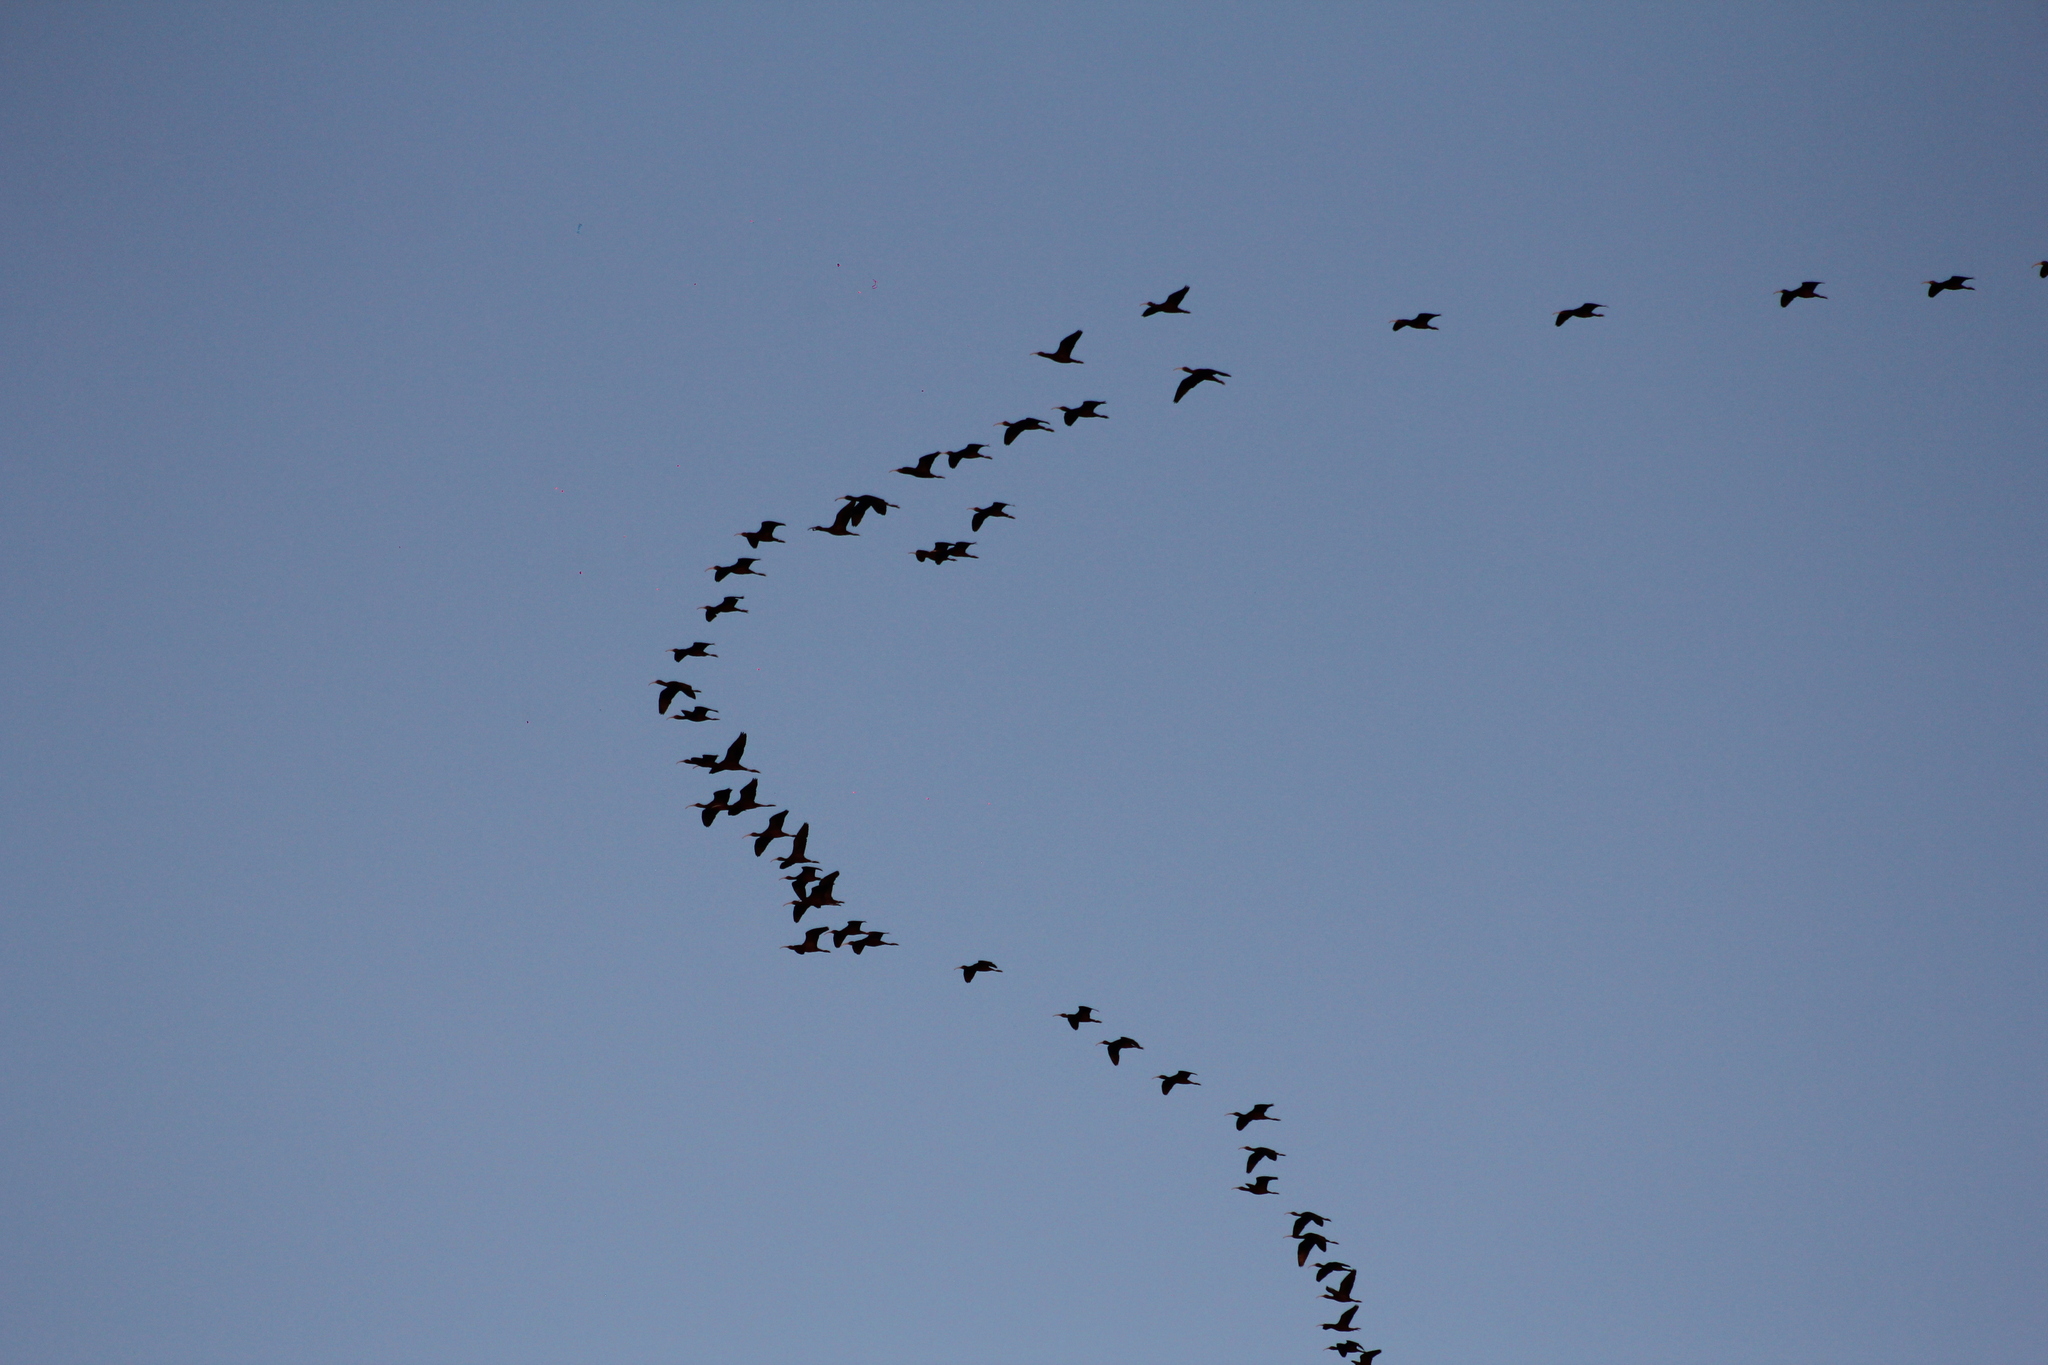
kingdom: Animalia
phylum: Chordata
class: Aves
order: Pelecaniformes
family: Threskiornithidae
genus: Plegadis
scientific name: Plegadis chihi
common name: White-faced ibis
